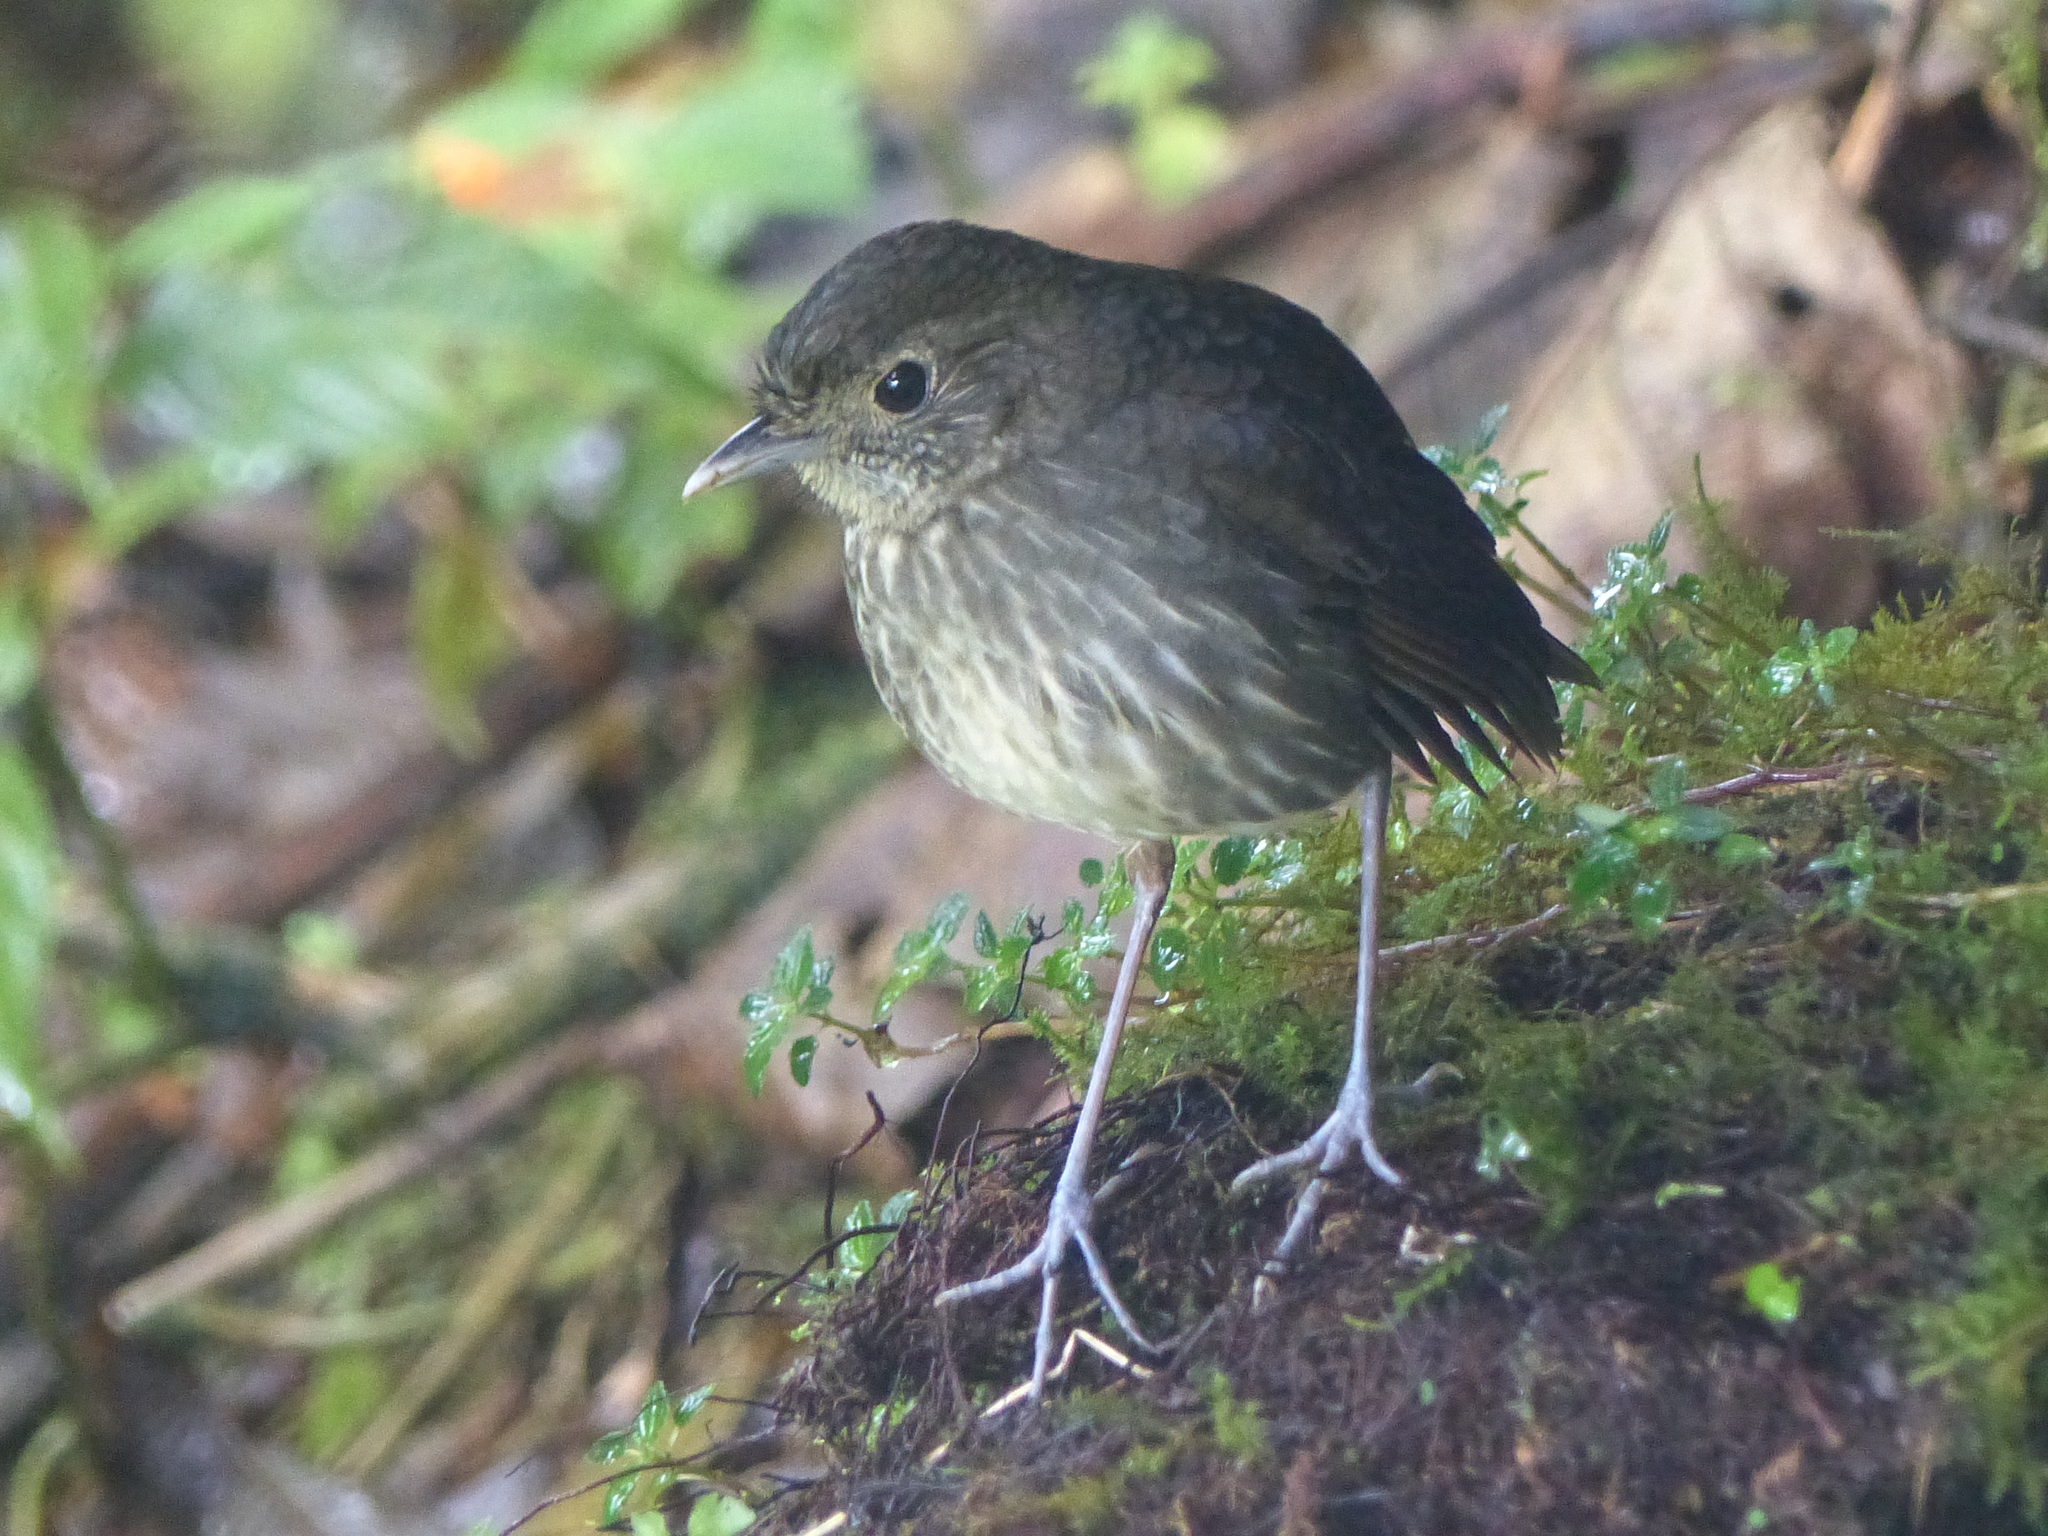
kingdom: Animalia
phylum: Chordata
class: Aves
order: Passeriformes
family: Grallariidae
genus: Grallaria
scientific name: Grallaria kaestneri
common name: Cundinamarca antpitta
